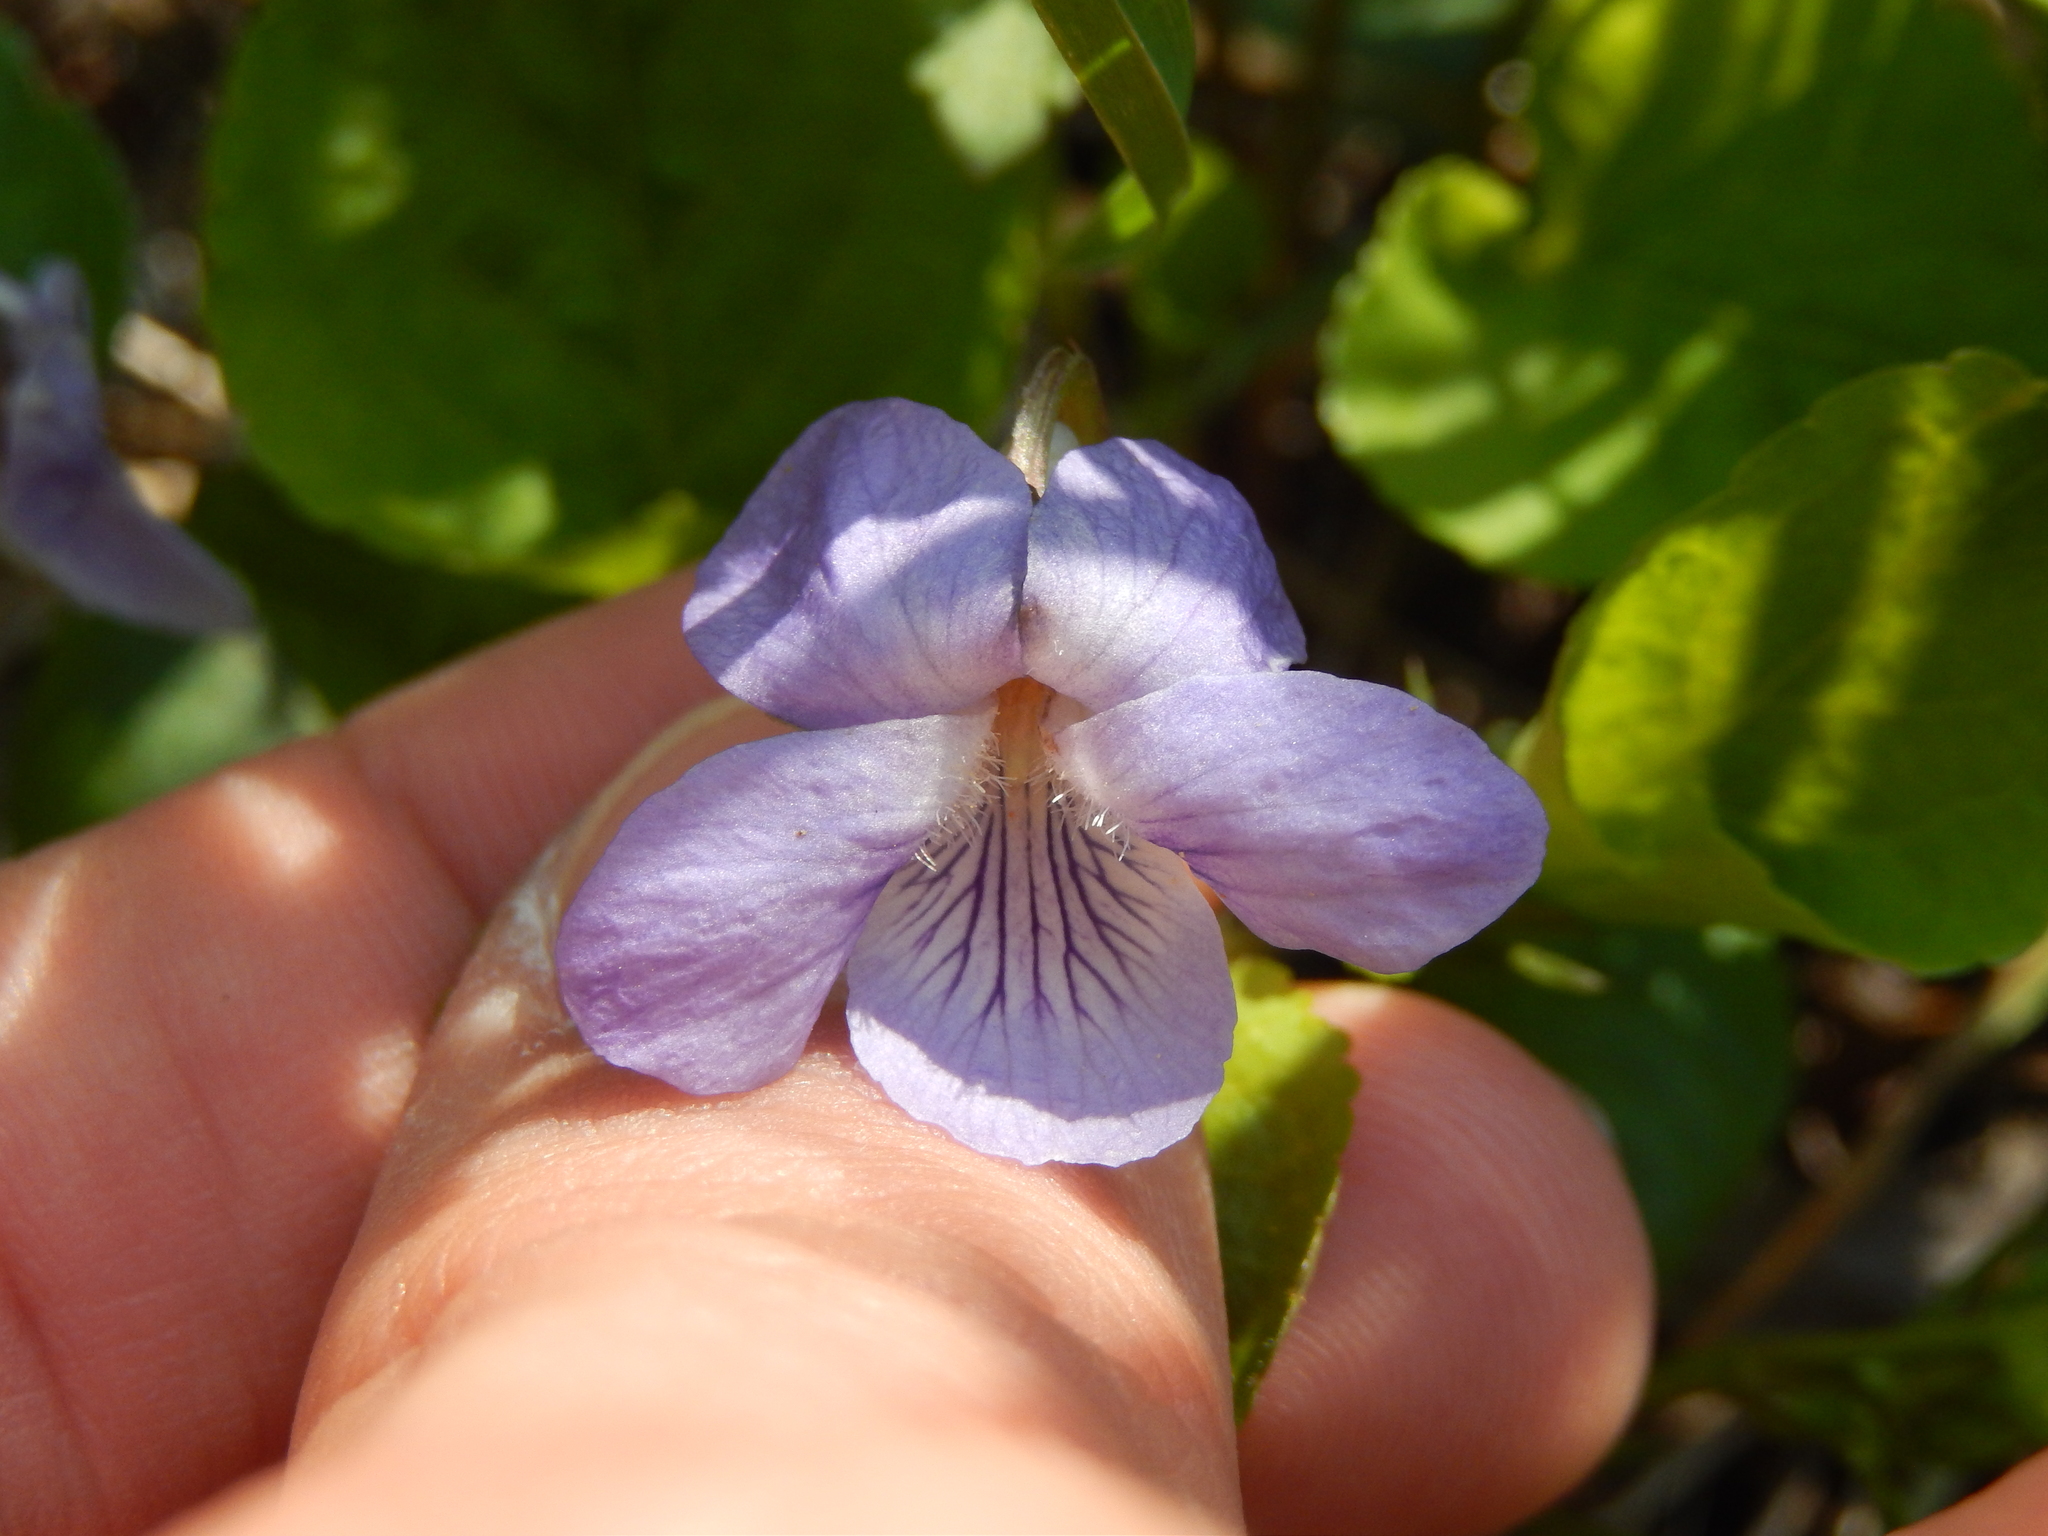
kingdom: Plantae
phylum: Tracheophyta
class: Magnoliopsida
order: Malpighiales
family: Violaceae
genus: Viola
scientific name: Viola riviniana
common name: Common dog-violet
